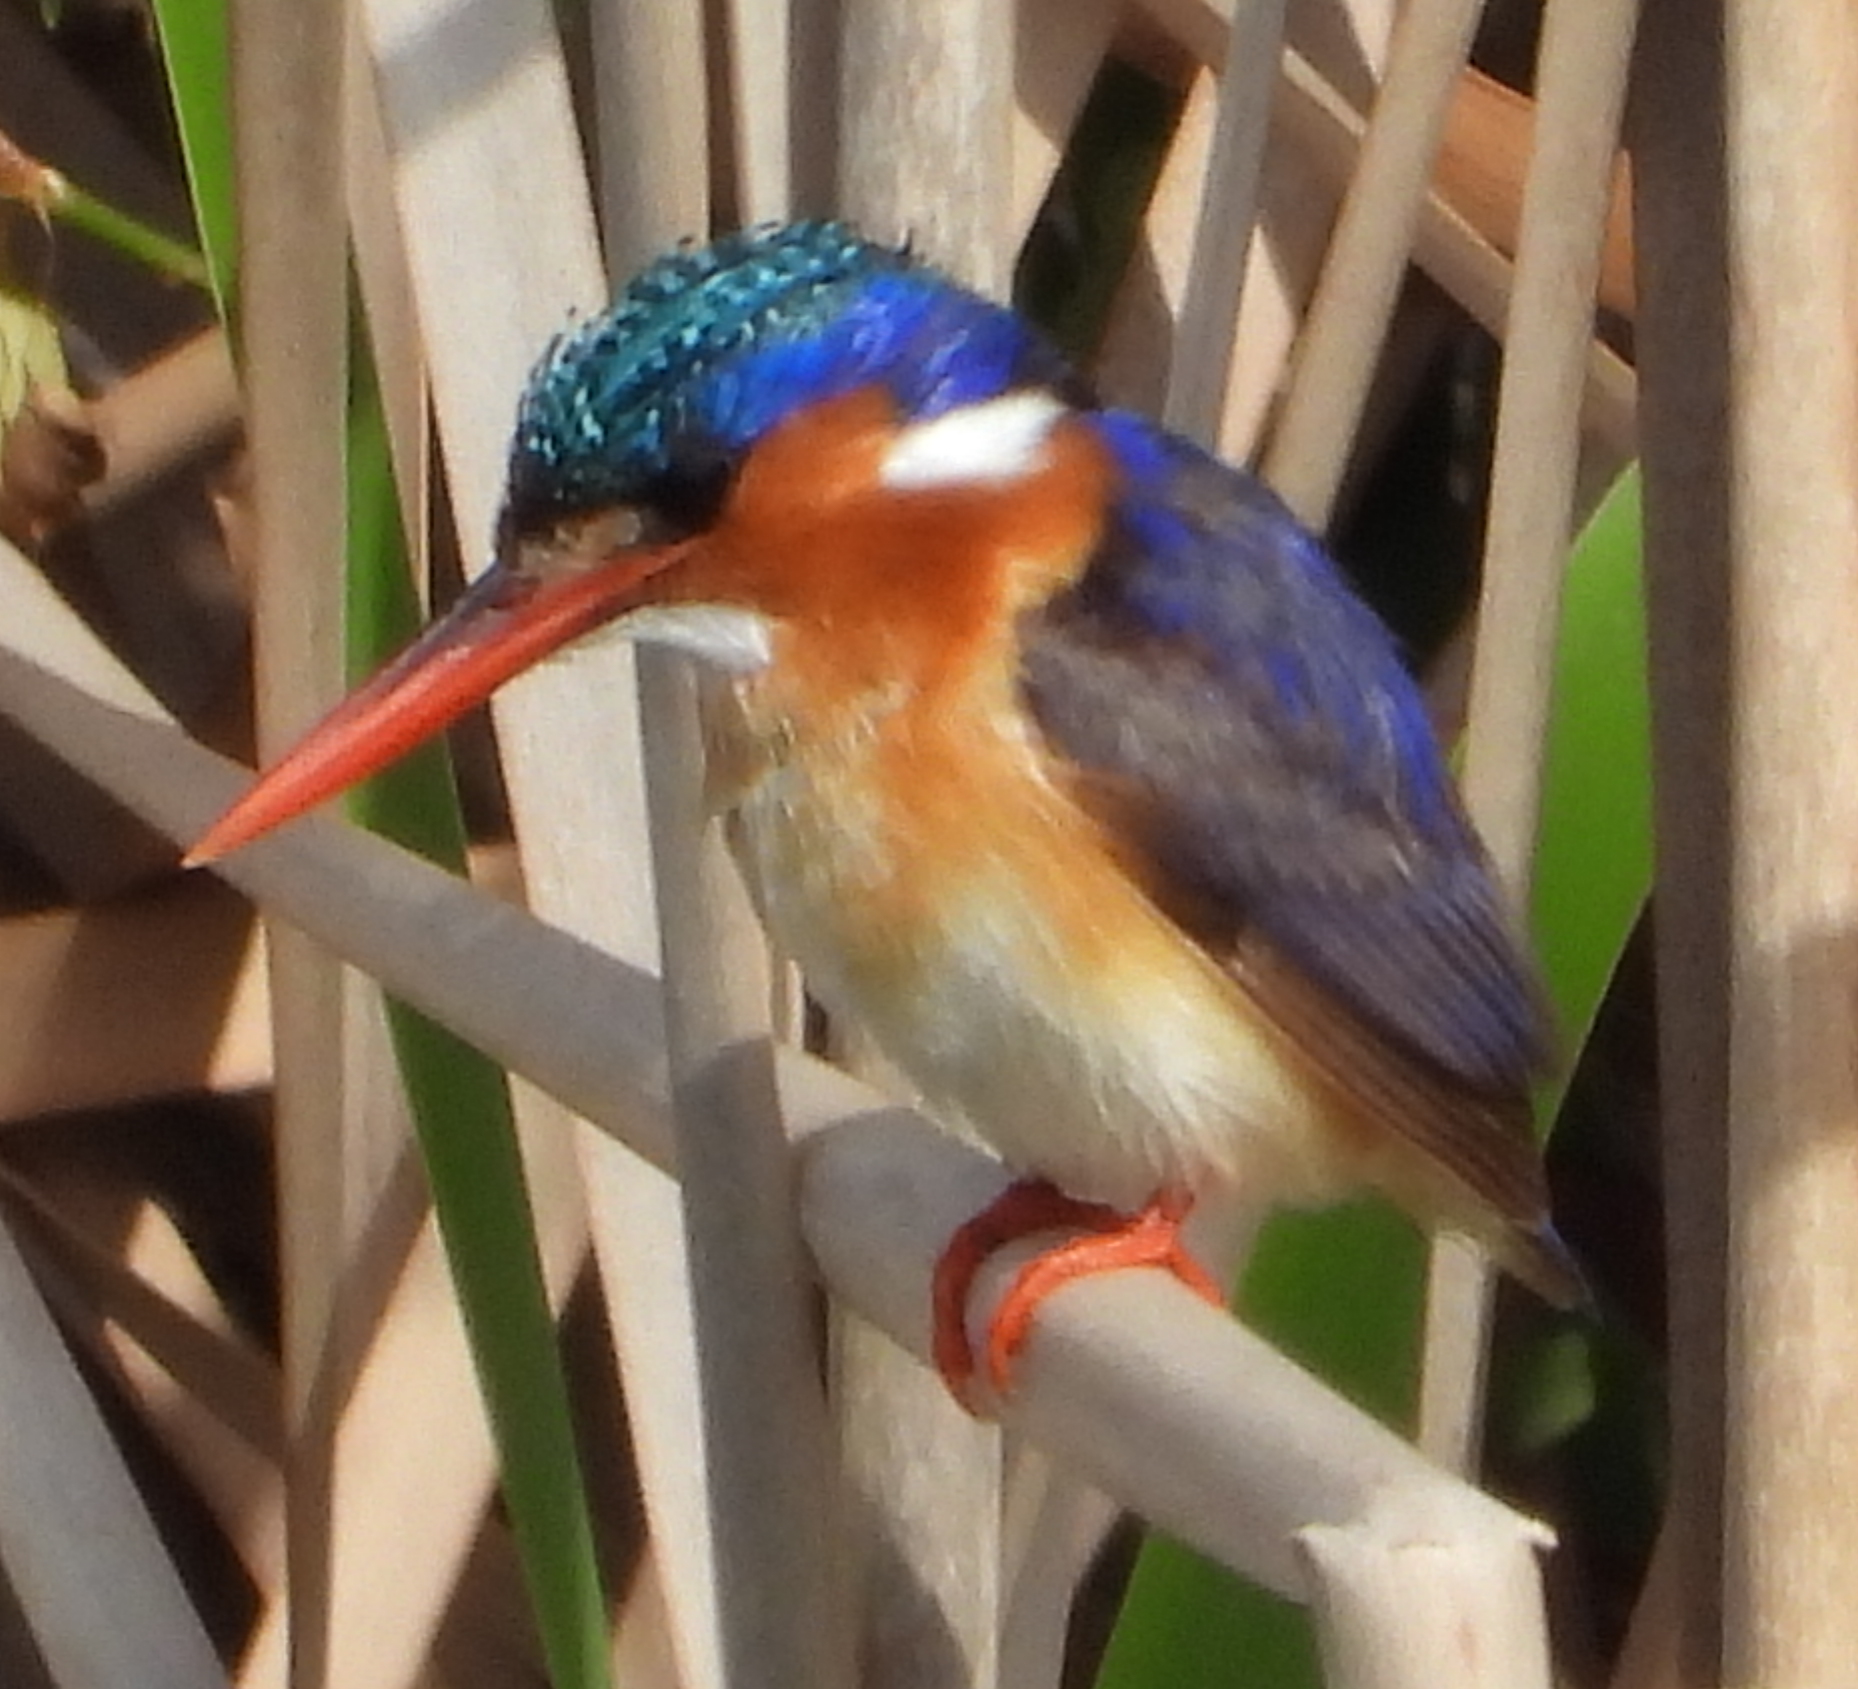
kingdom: Animalia
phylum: Chordata
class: Aves
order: Coraciiformes
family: Alcedinidae
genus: Corythornis
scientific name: Corythornis cristatus
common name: Malachite kingfisher
